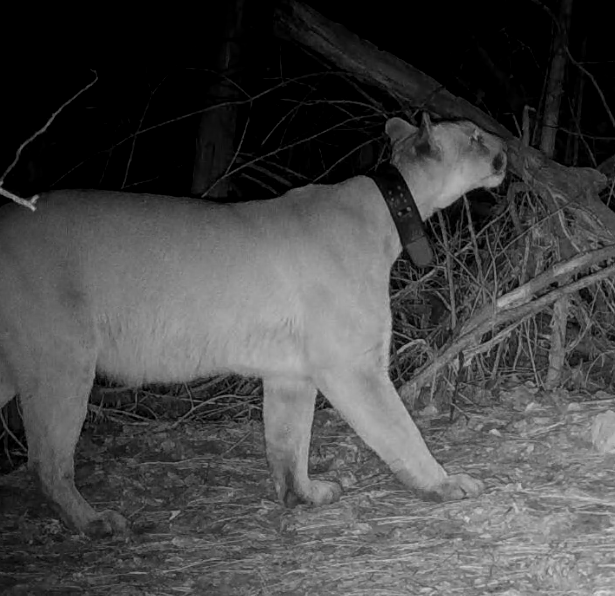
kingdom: Animalia
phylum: Chordata
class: Mammalia
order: Carnivora
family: Felidae
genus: Puma
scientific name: Puma concolor
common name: Puma
